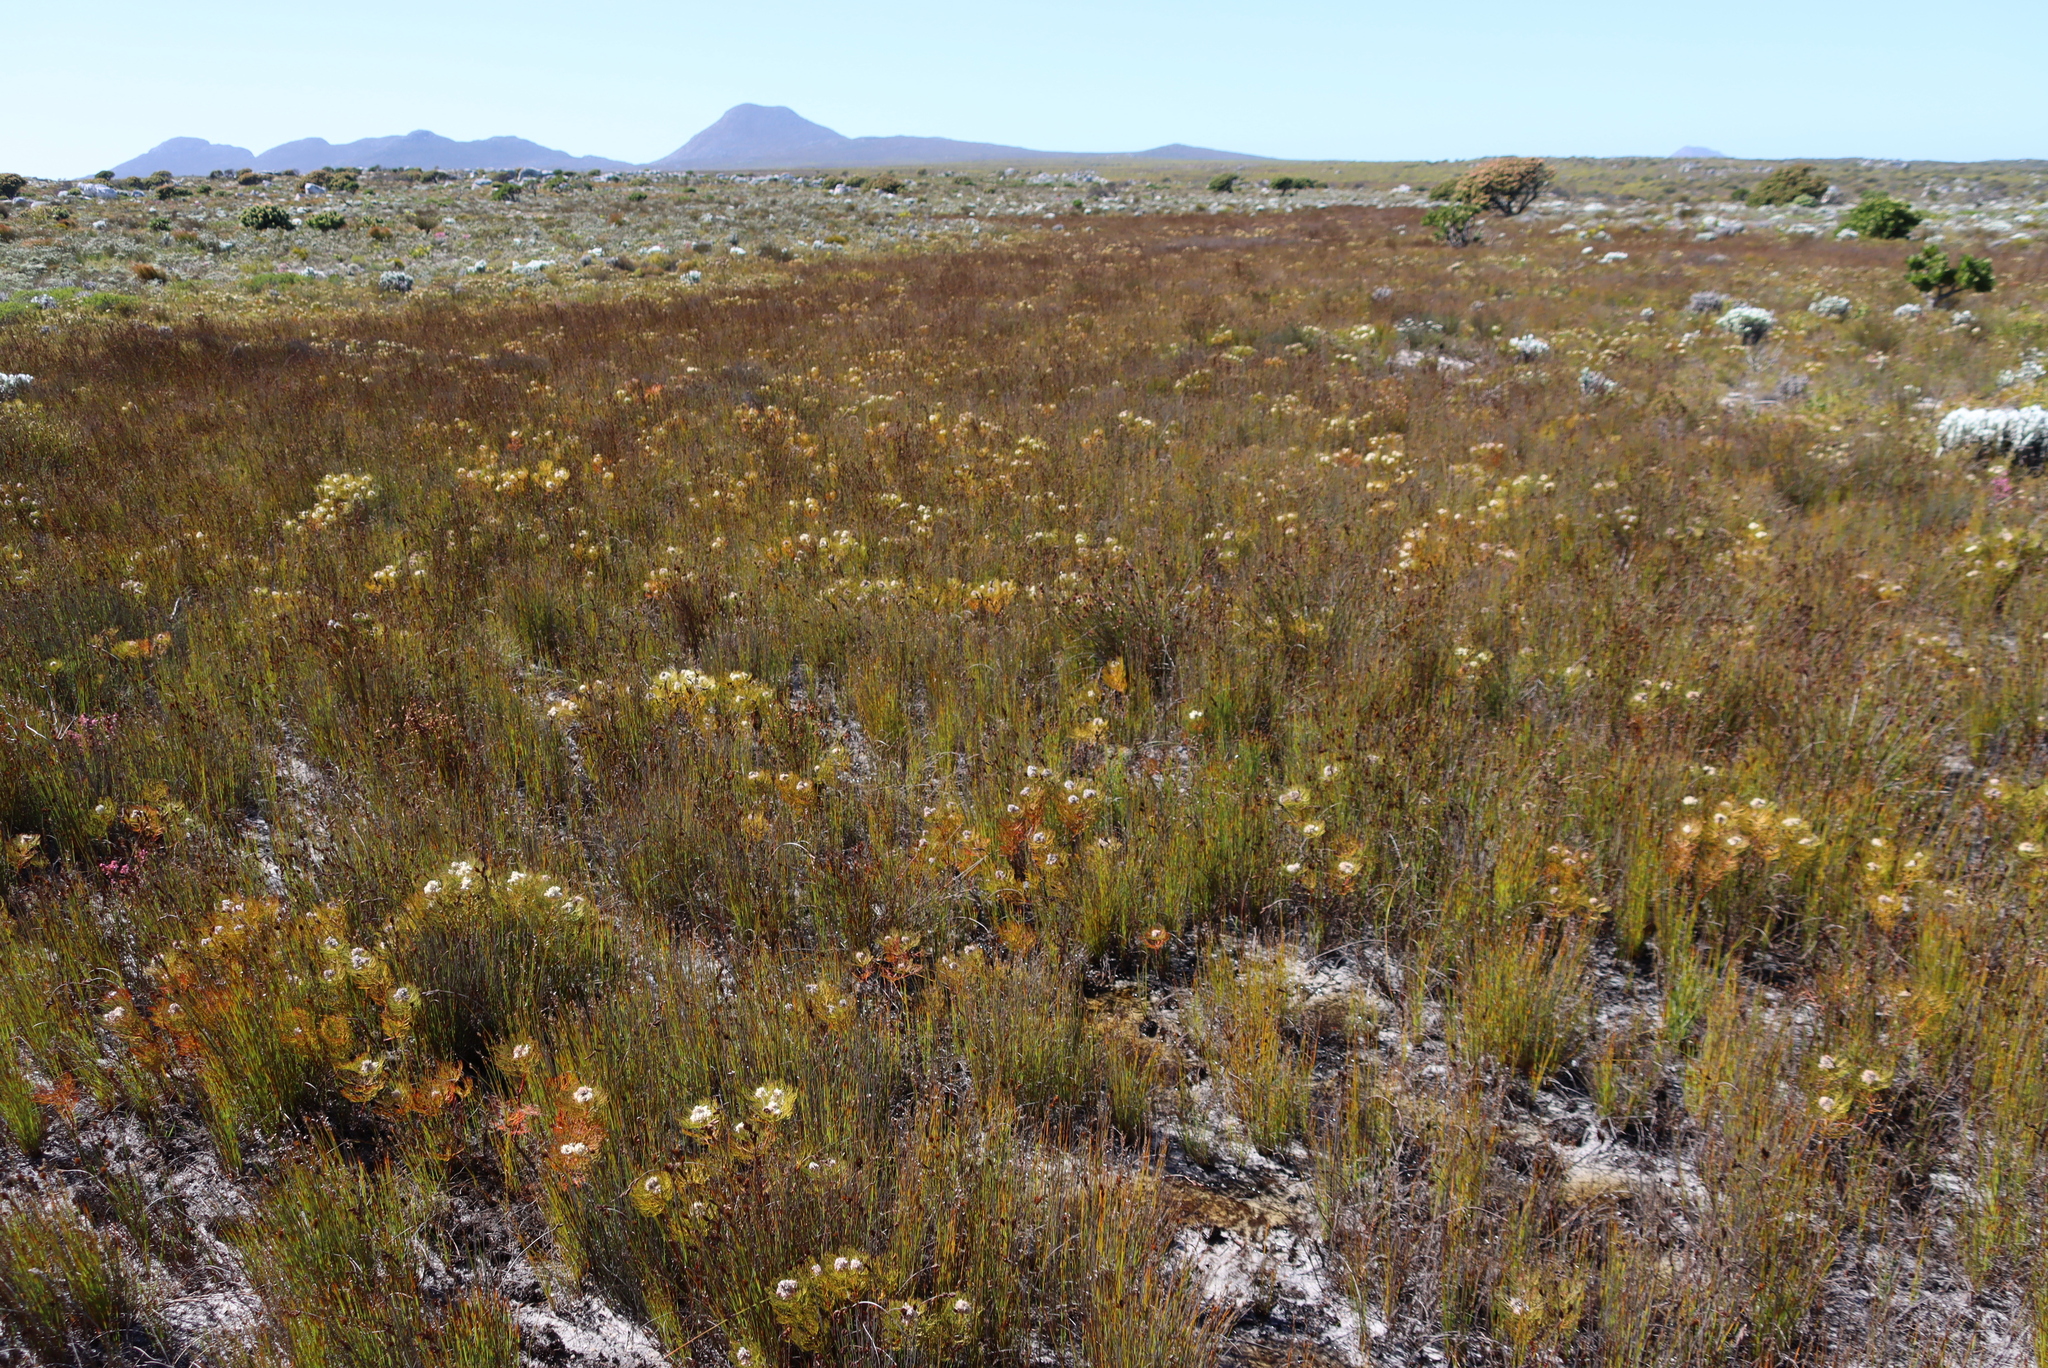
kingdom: Plantae
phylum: Tracheophyta
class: Magnoliopsida
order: Proteales
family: Proteaceae
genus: Serruria
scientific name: Serruria glomerata
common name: Cluster spiderhead
